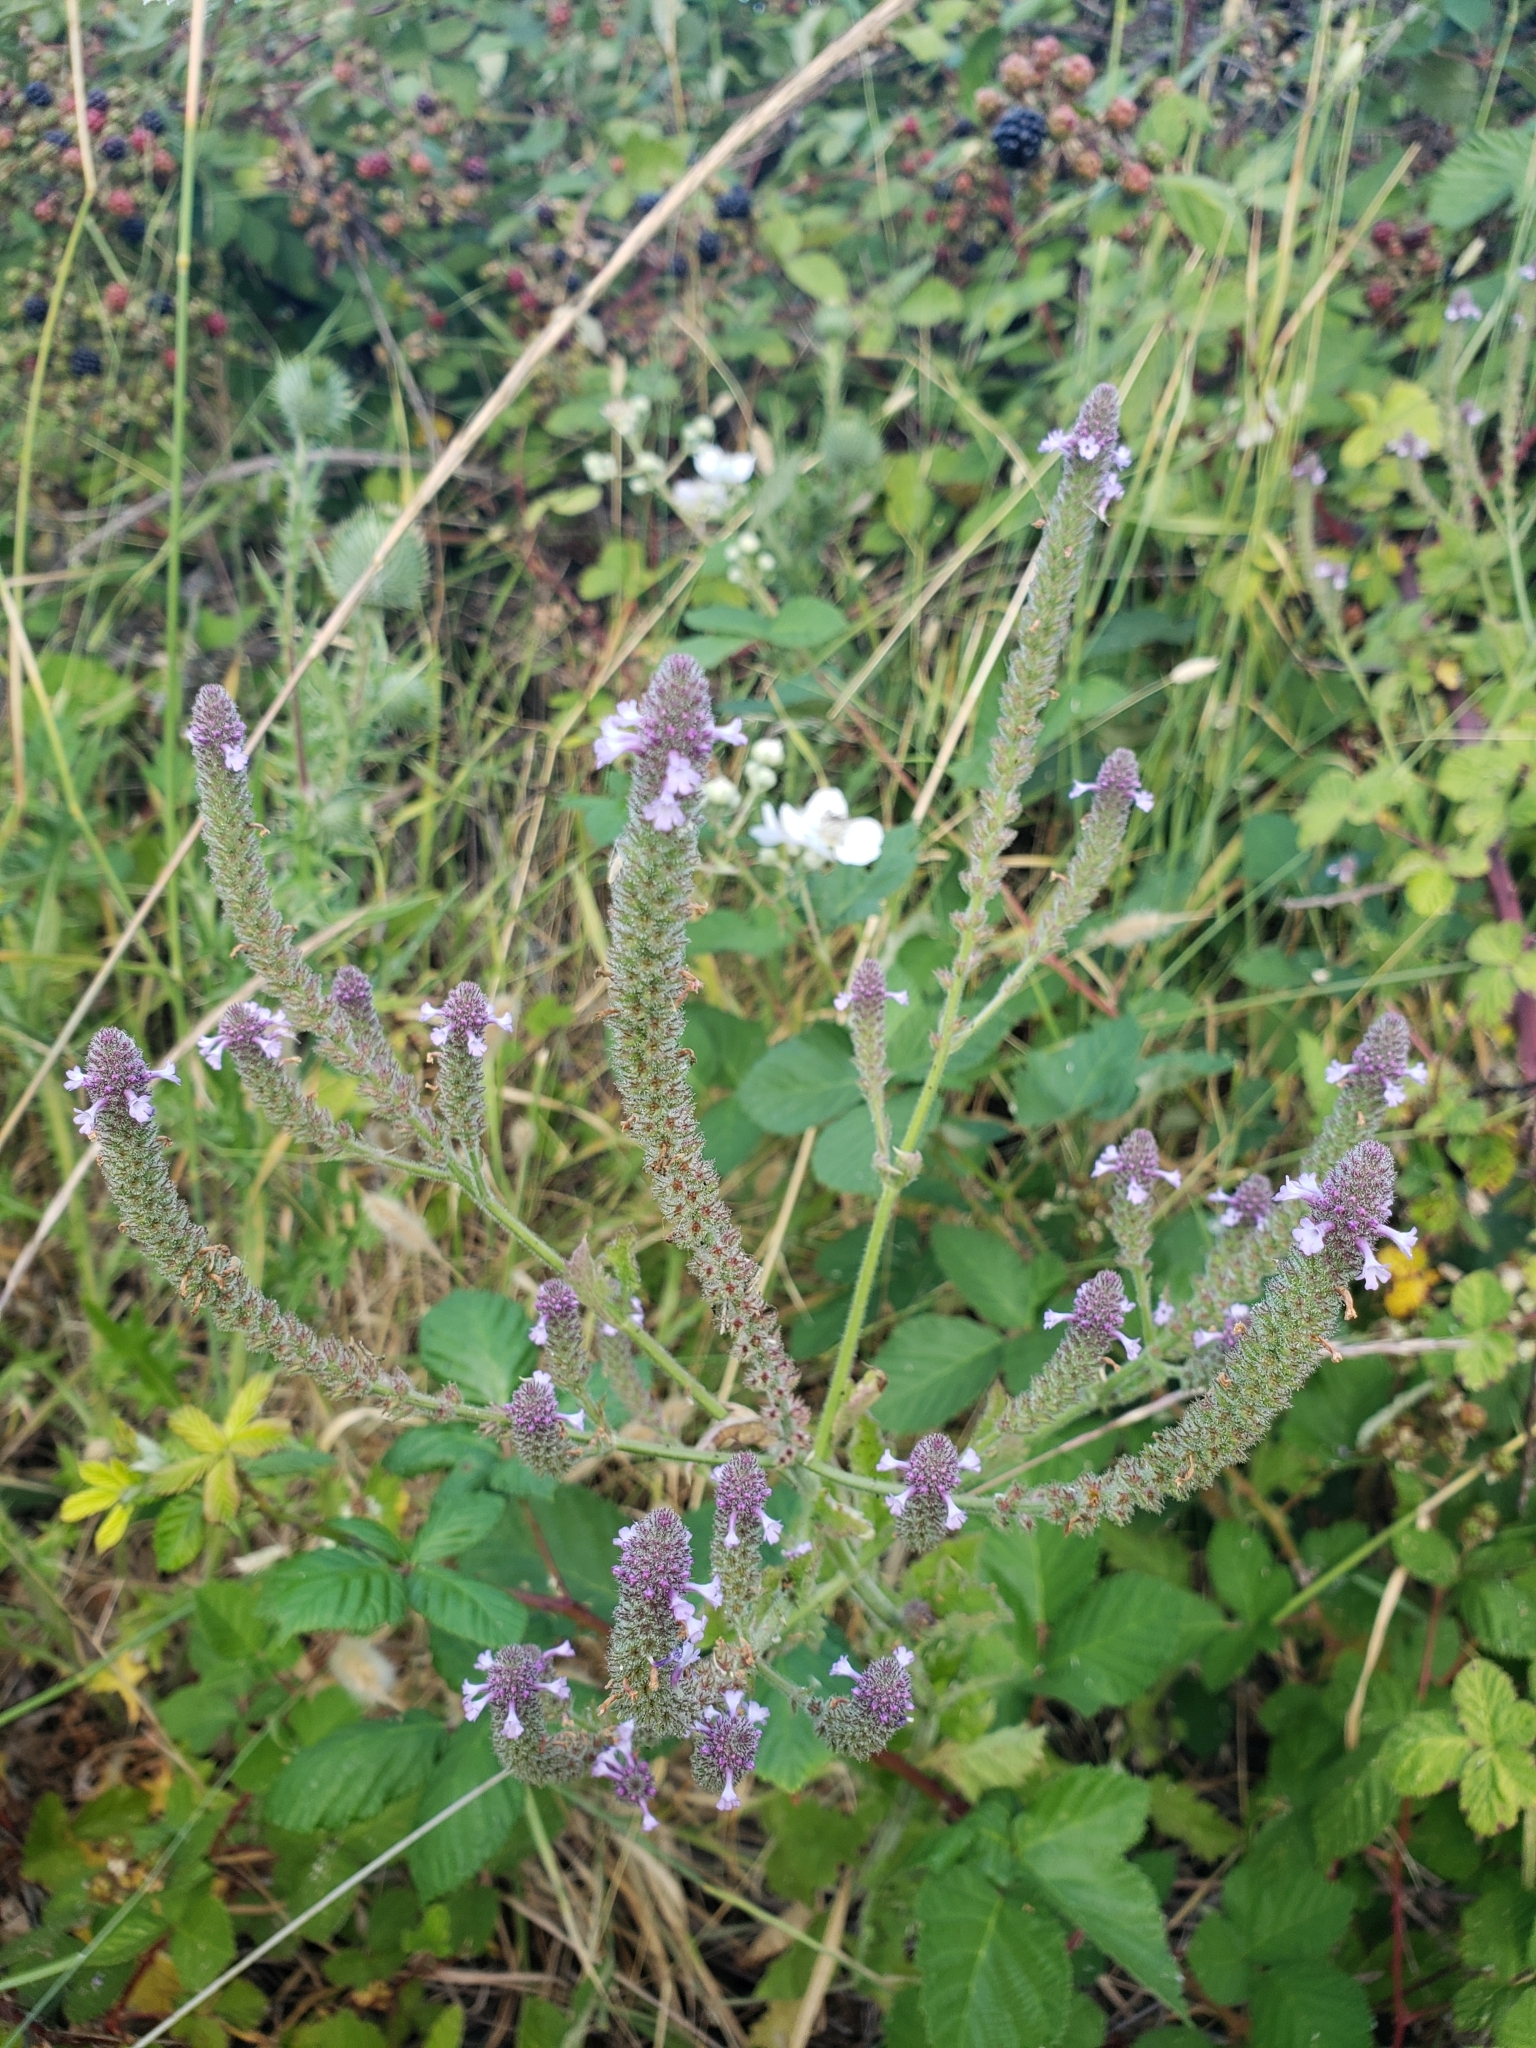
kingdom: Plantae
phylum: Tracheophyta
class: Magnoliopsida
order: Lamiales
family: Verbenaceae
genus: Verbena
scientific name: Verbena lasiostachys
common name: Vervain
